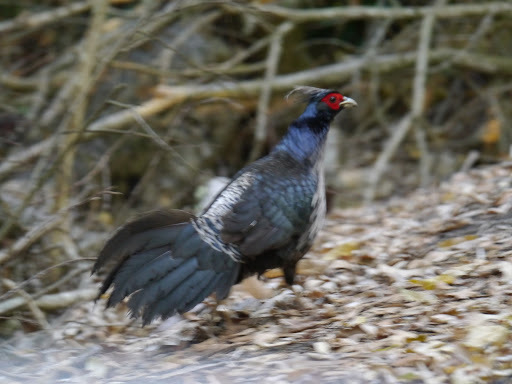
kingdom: Animalia
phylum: Chordata
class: Aves
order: Galliformes
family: Phasianidae
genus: Lophura
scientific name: Lophura leucomelanos
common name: Kalij pheasant
